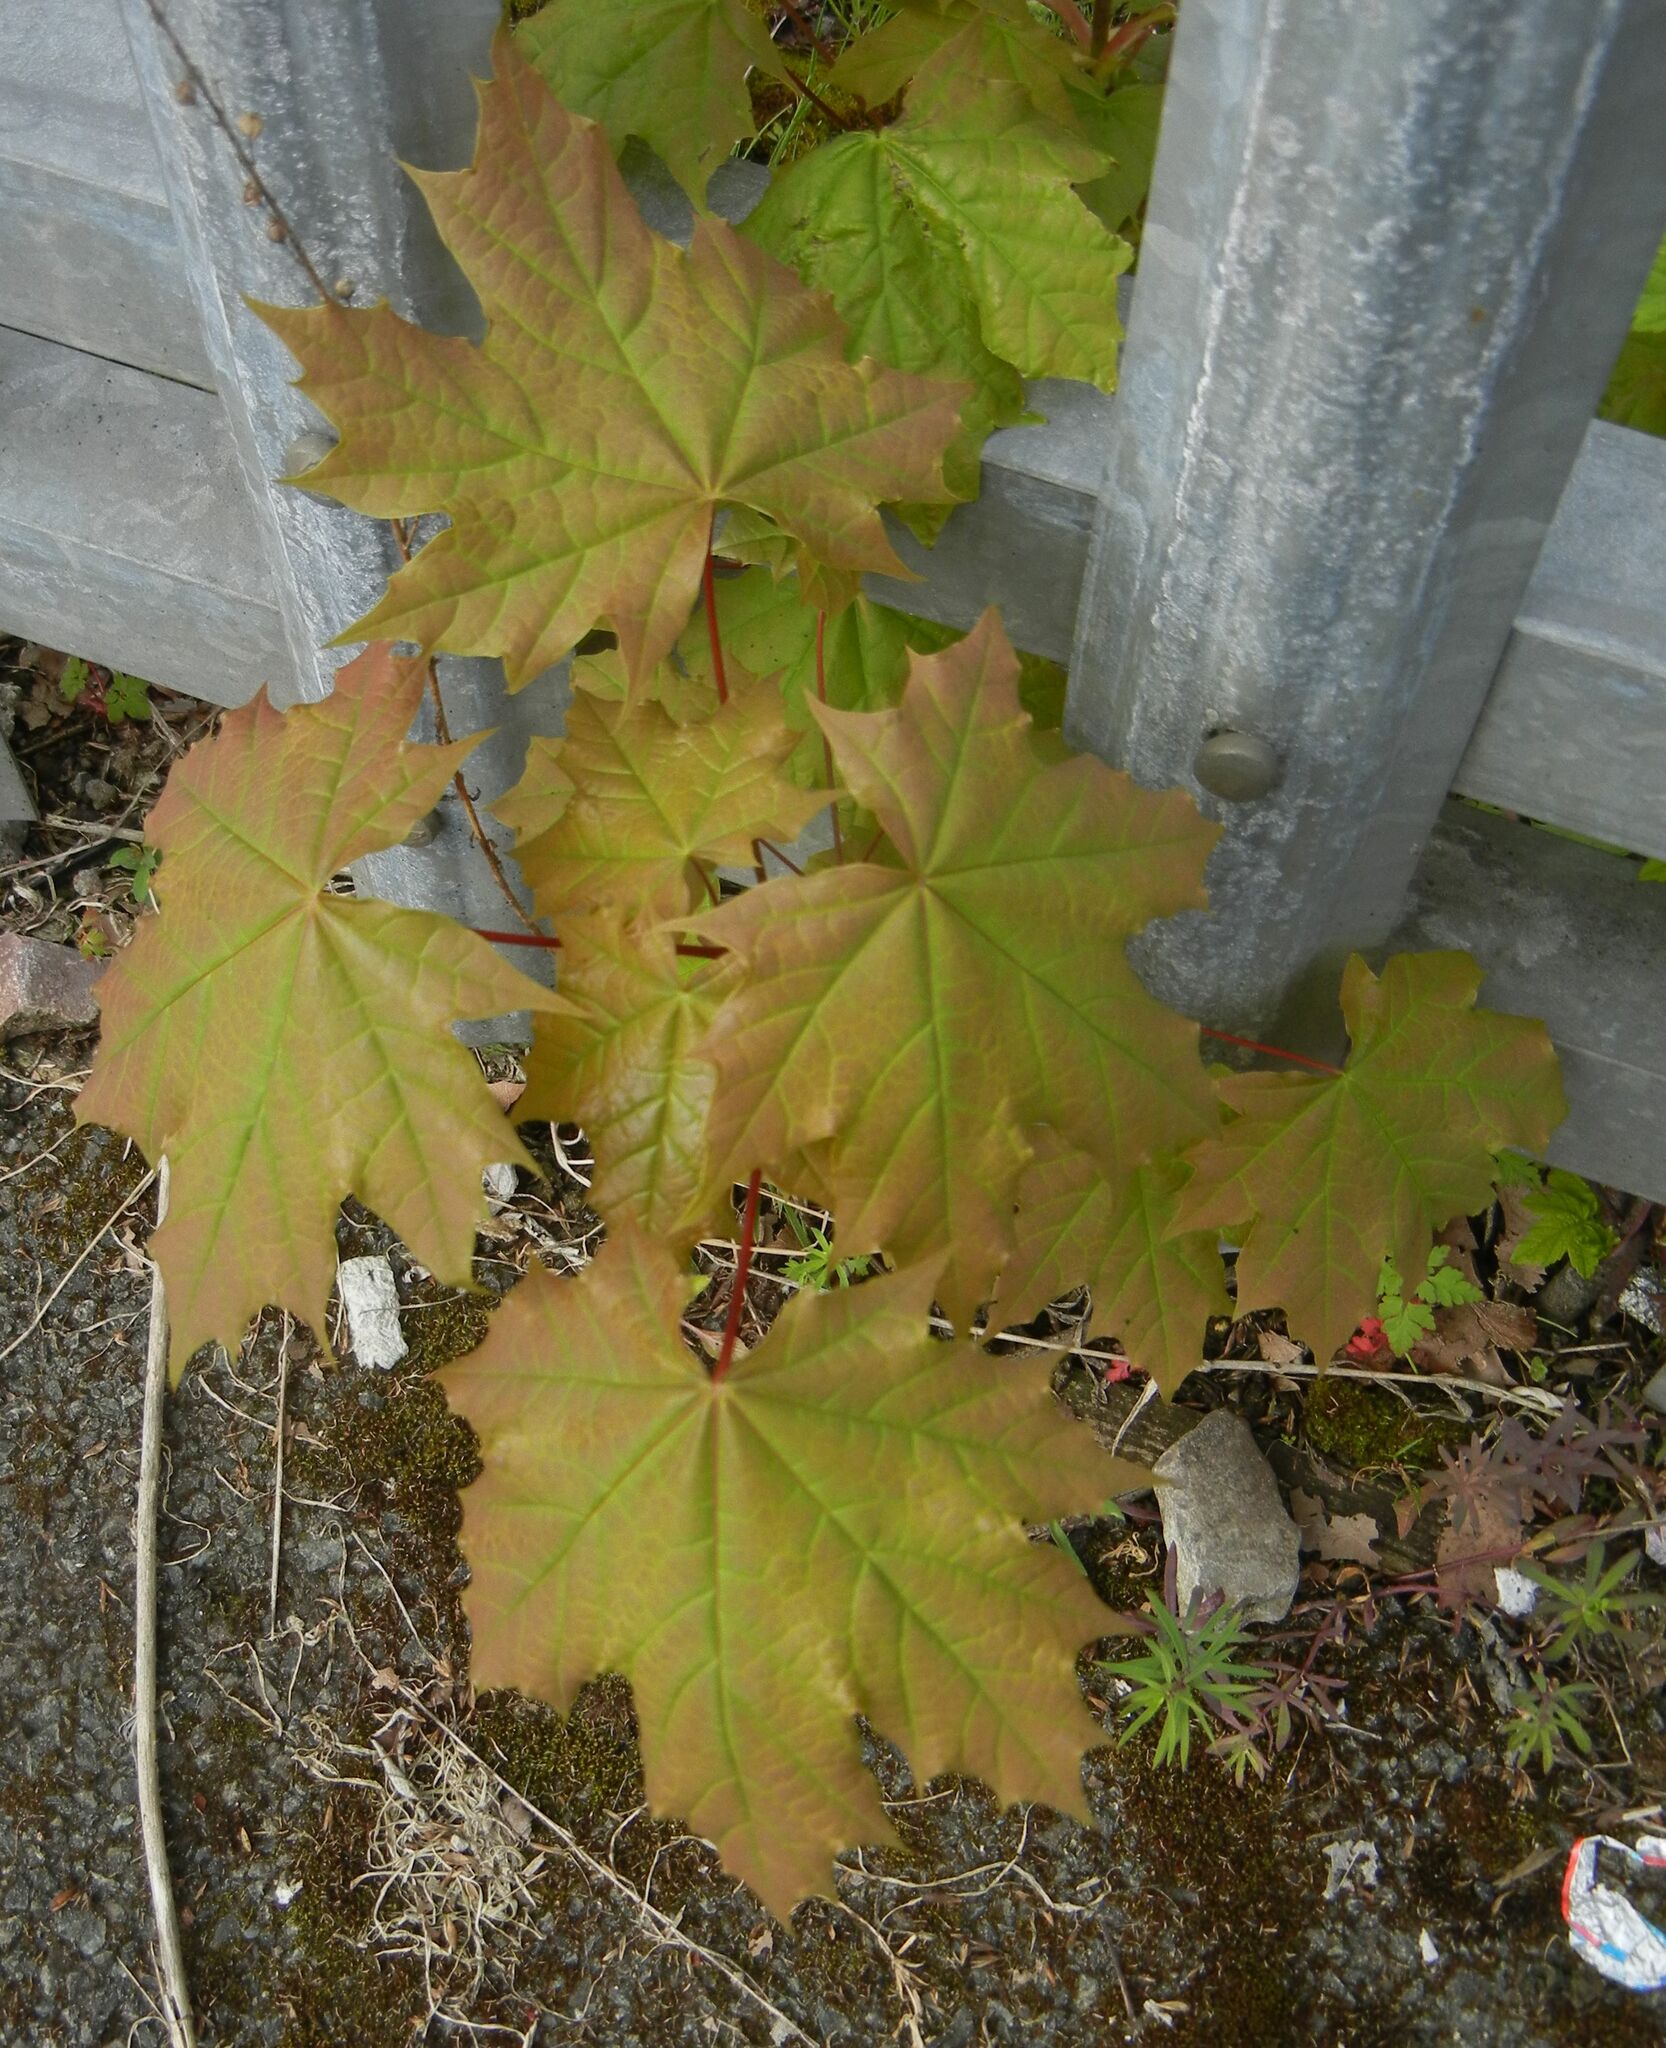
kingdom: Plantae
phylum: Tracheophyta
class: Magnoliopsida
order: Sapindales
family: Sapindaceae
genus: Acer
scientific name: Acer platanoides
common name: Norway maple
